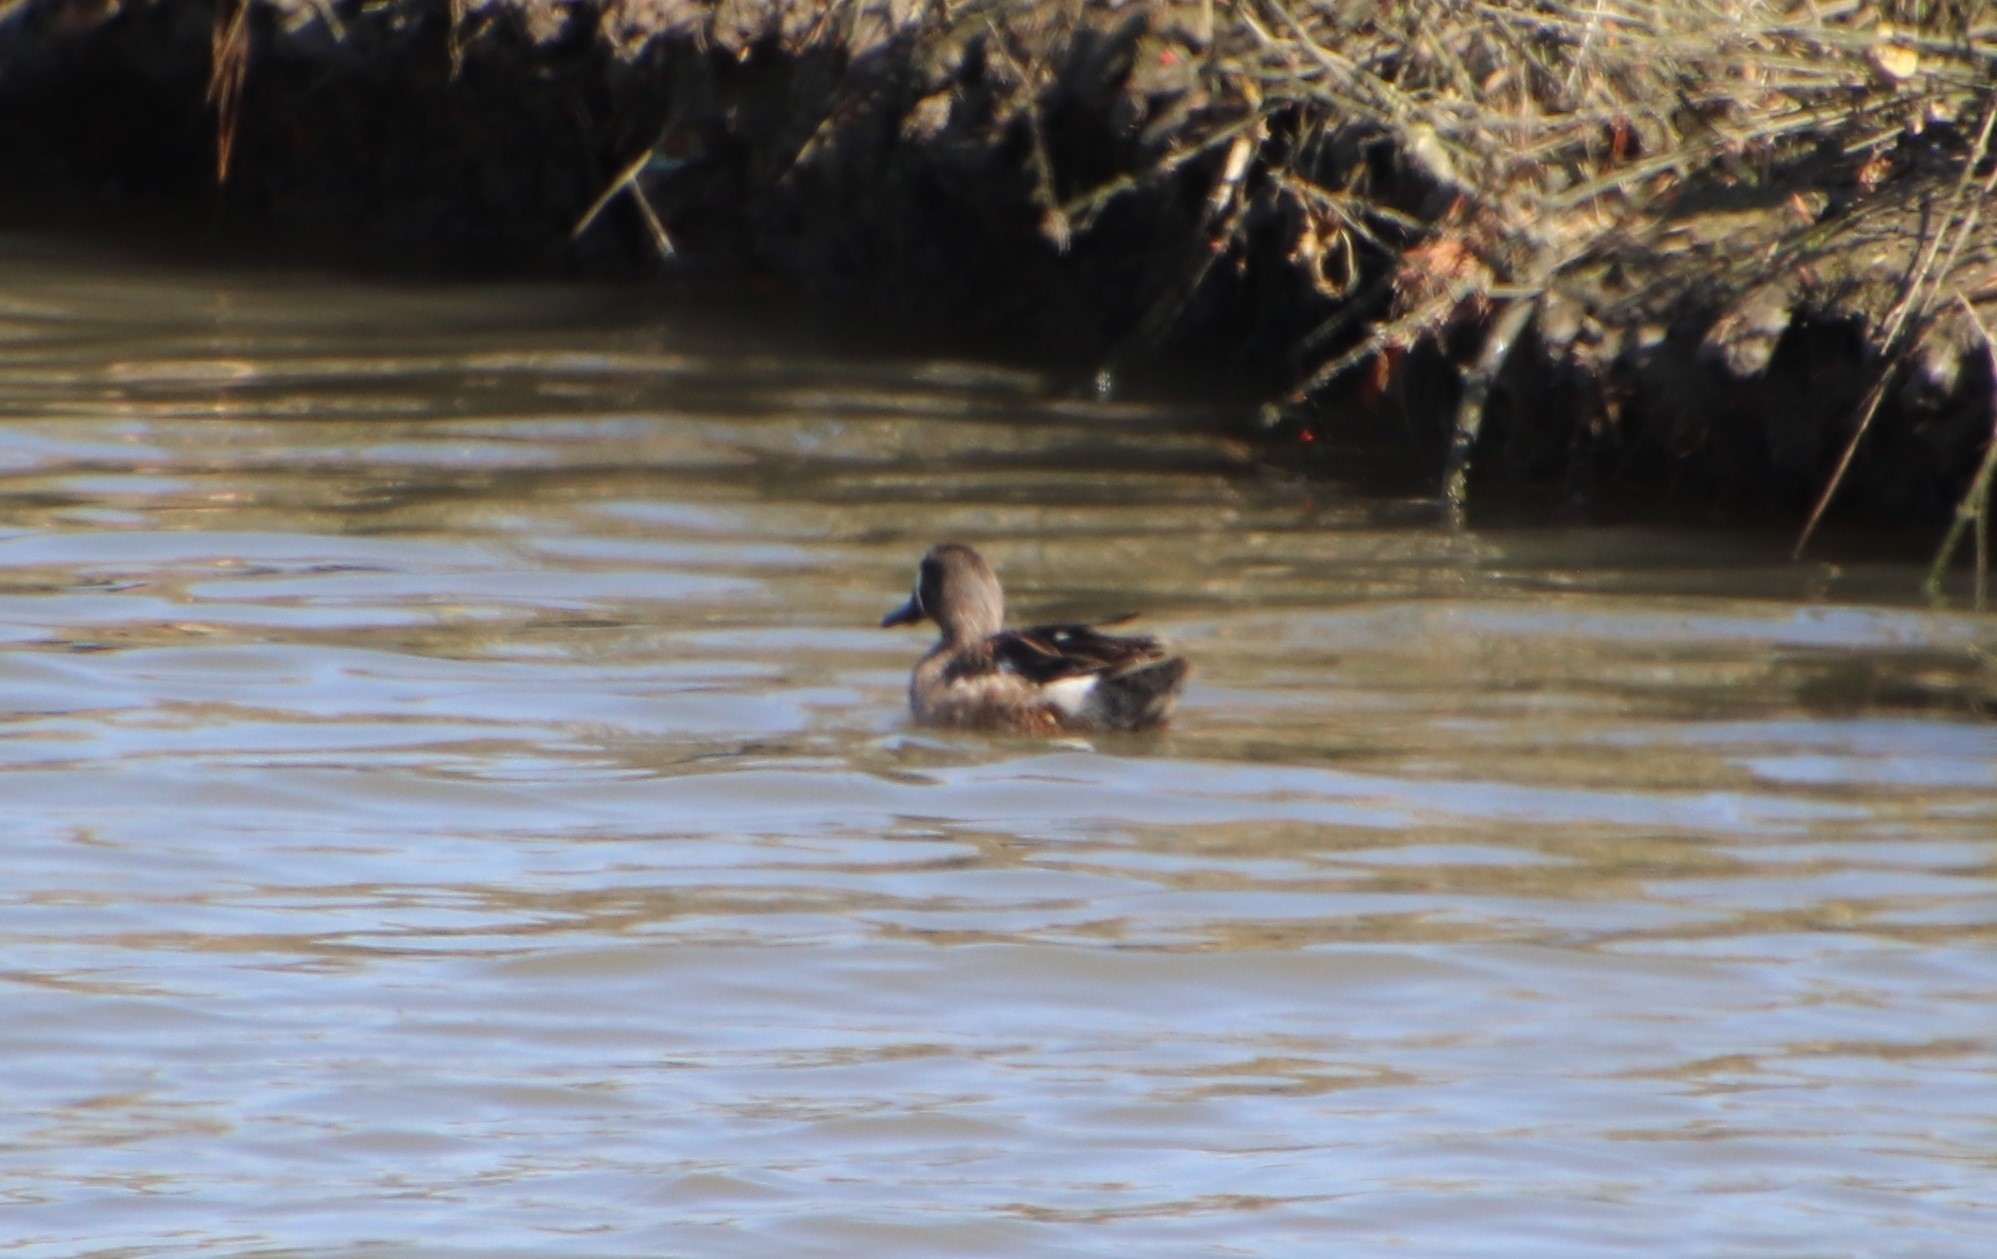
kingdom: Animalia
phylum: Chordata
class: Aves
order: Anseriformes
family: Anatidae
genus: Spatula
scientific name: Spatula discors
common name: Blue-winged teal
